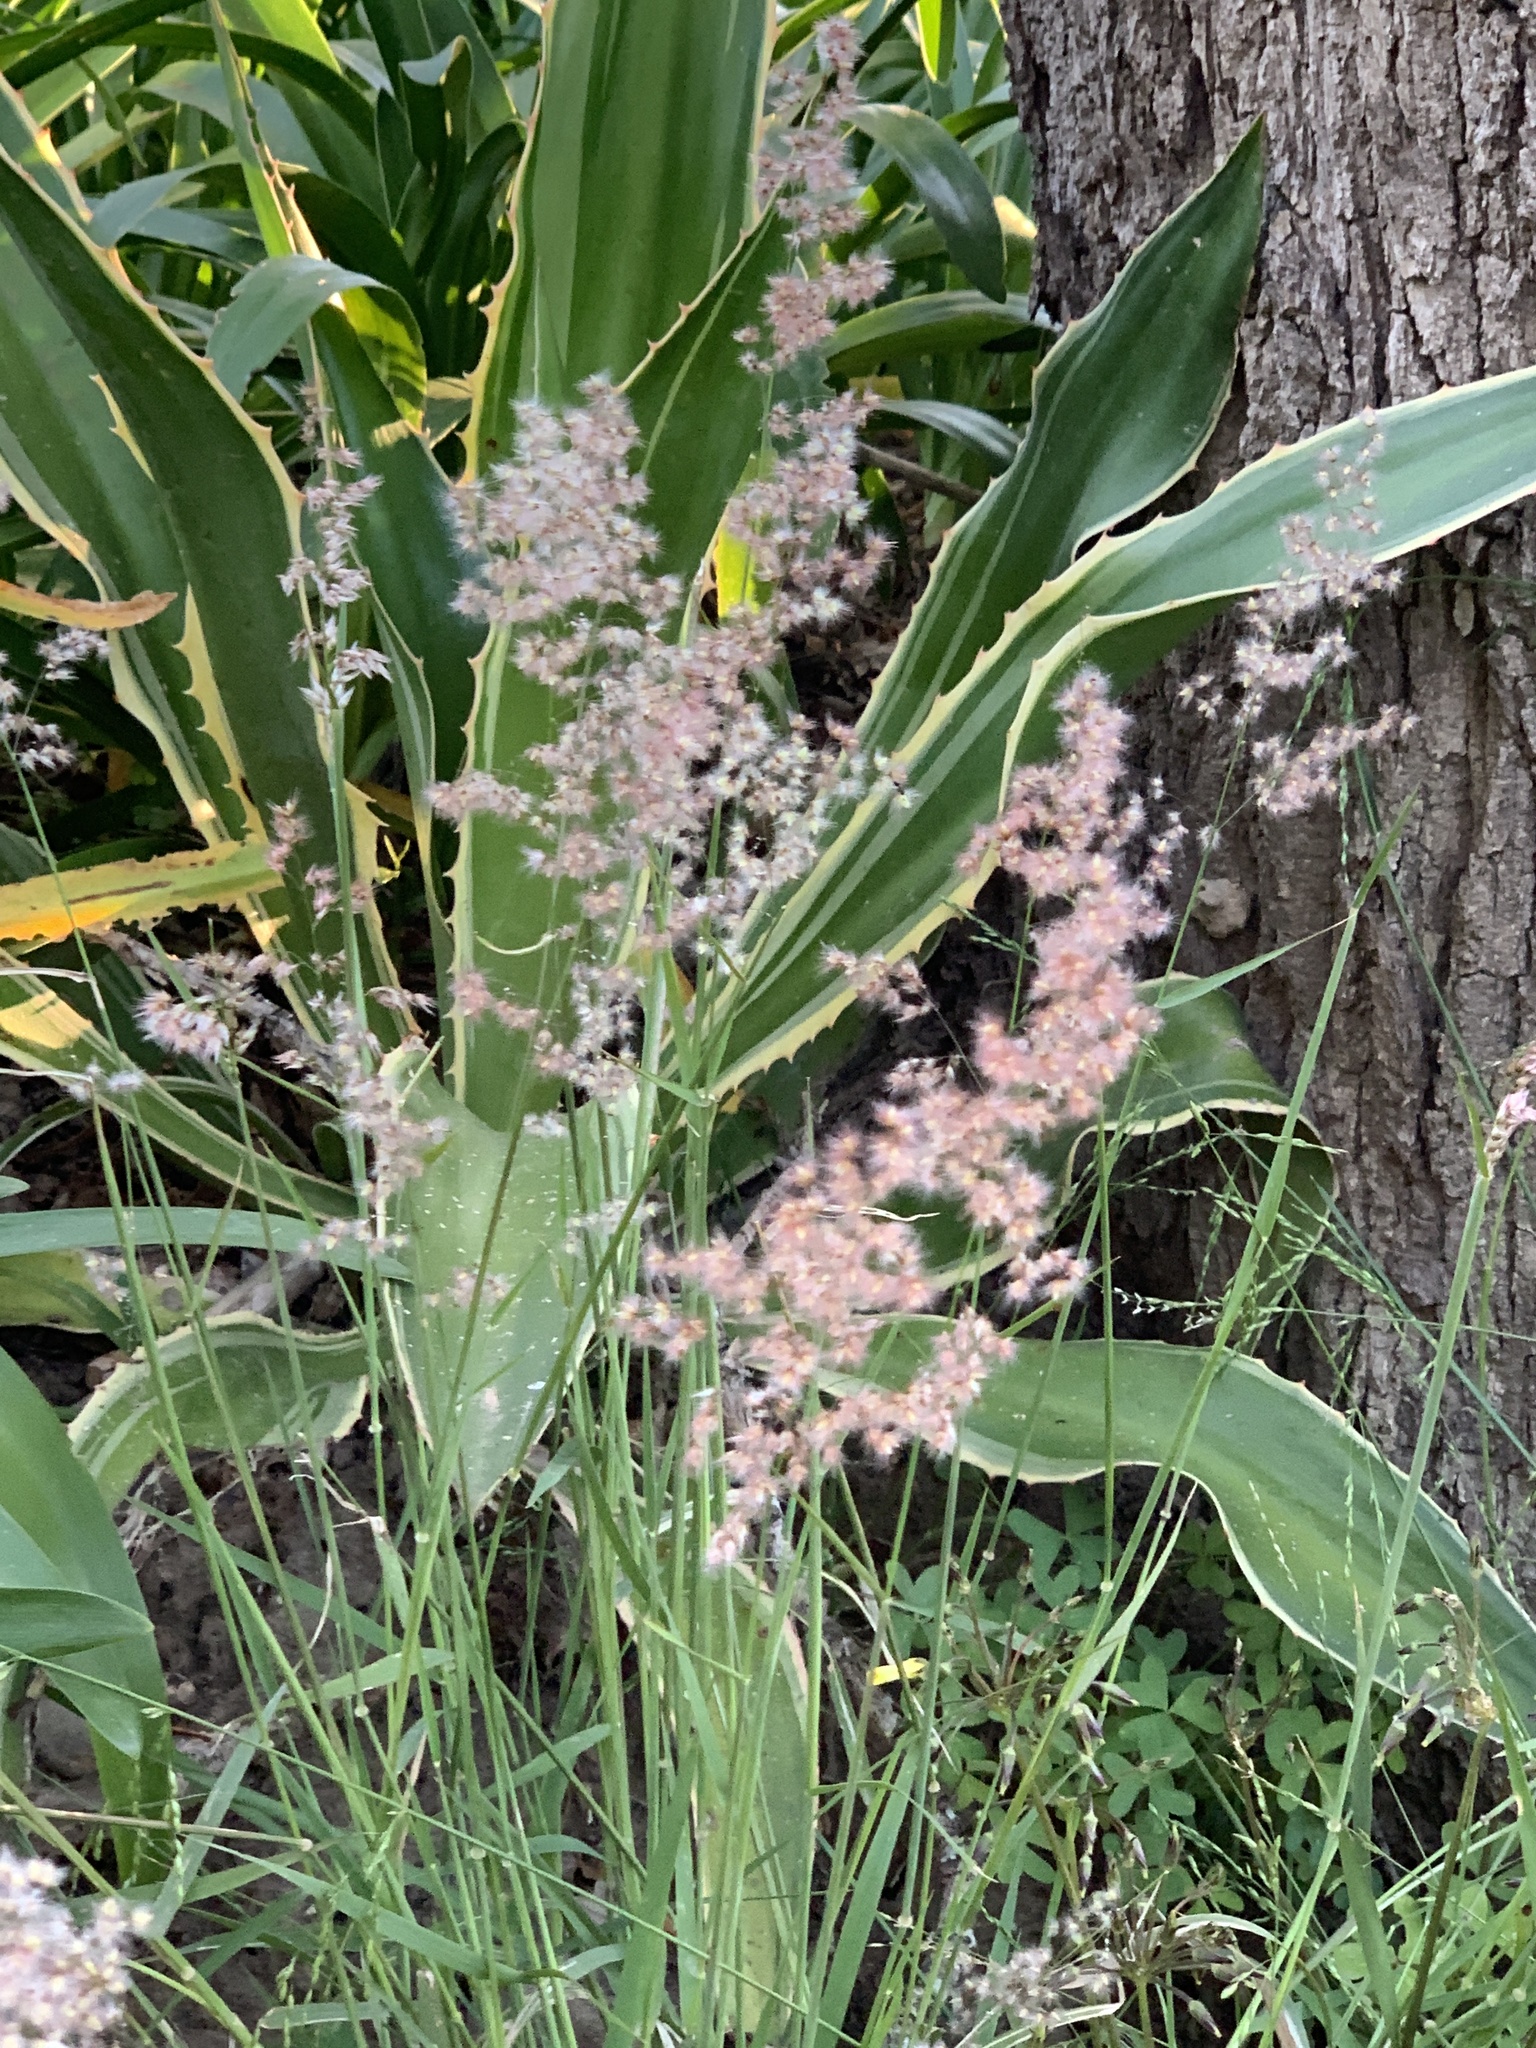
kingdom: Plantae
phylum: Tracheophyta
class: Liliopsida
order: Poales
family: Poaceae
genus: Melinis
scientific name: Melinis repens
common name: Rose natal grass
